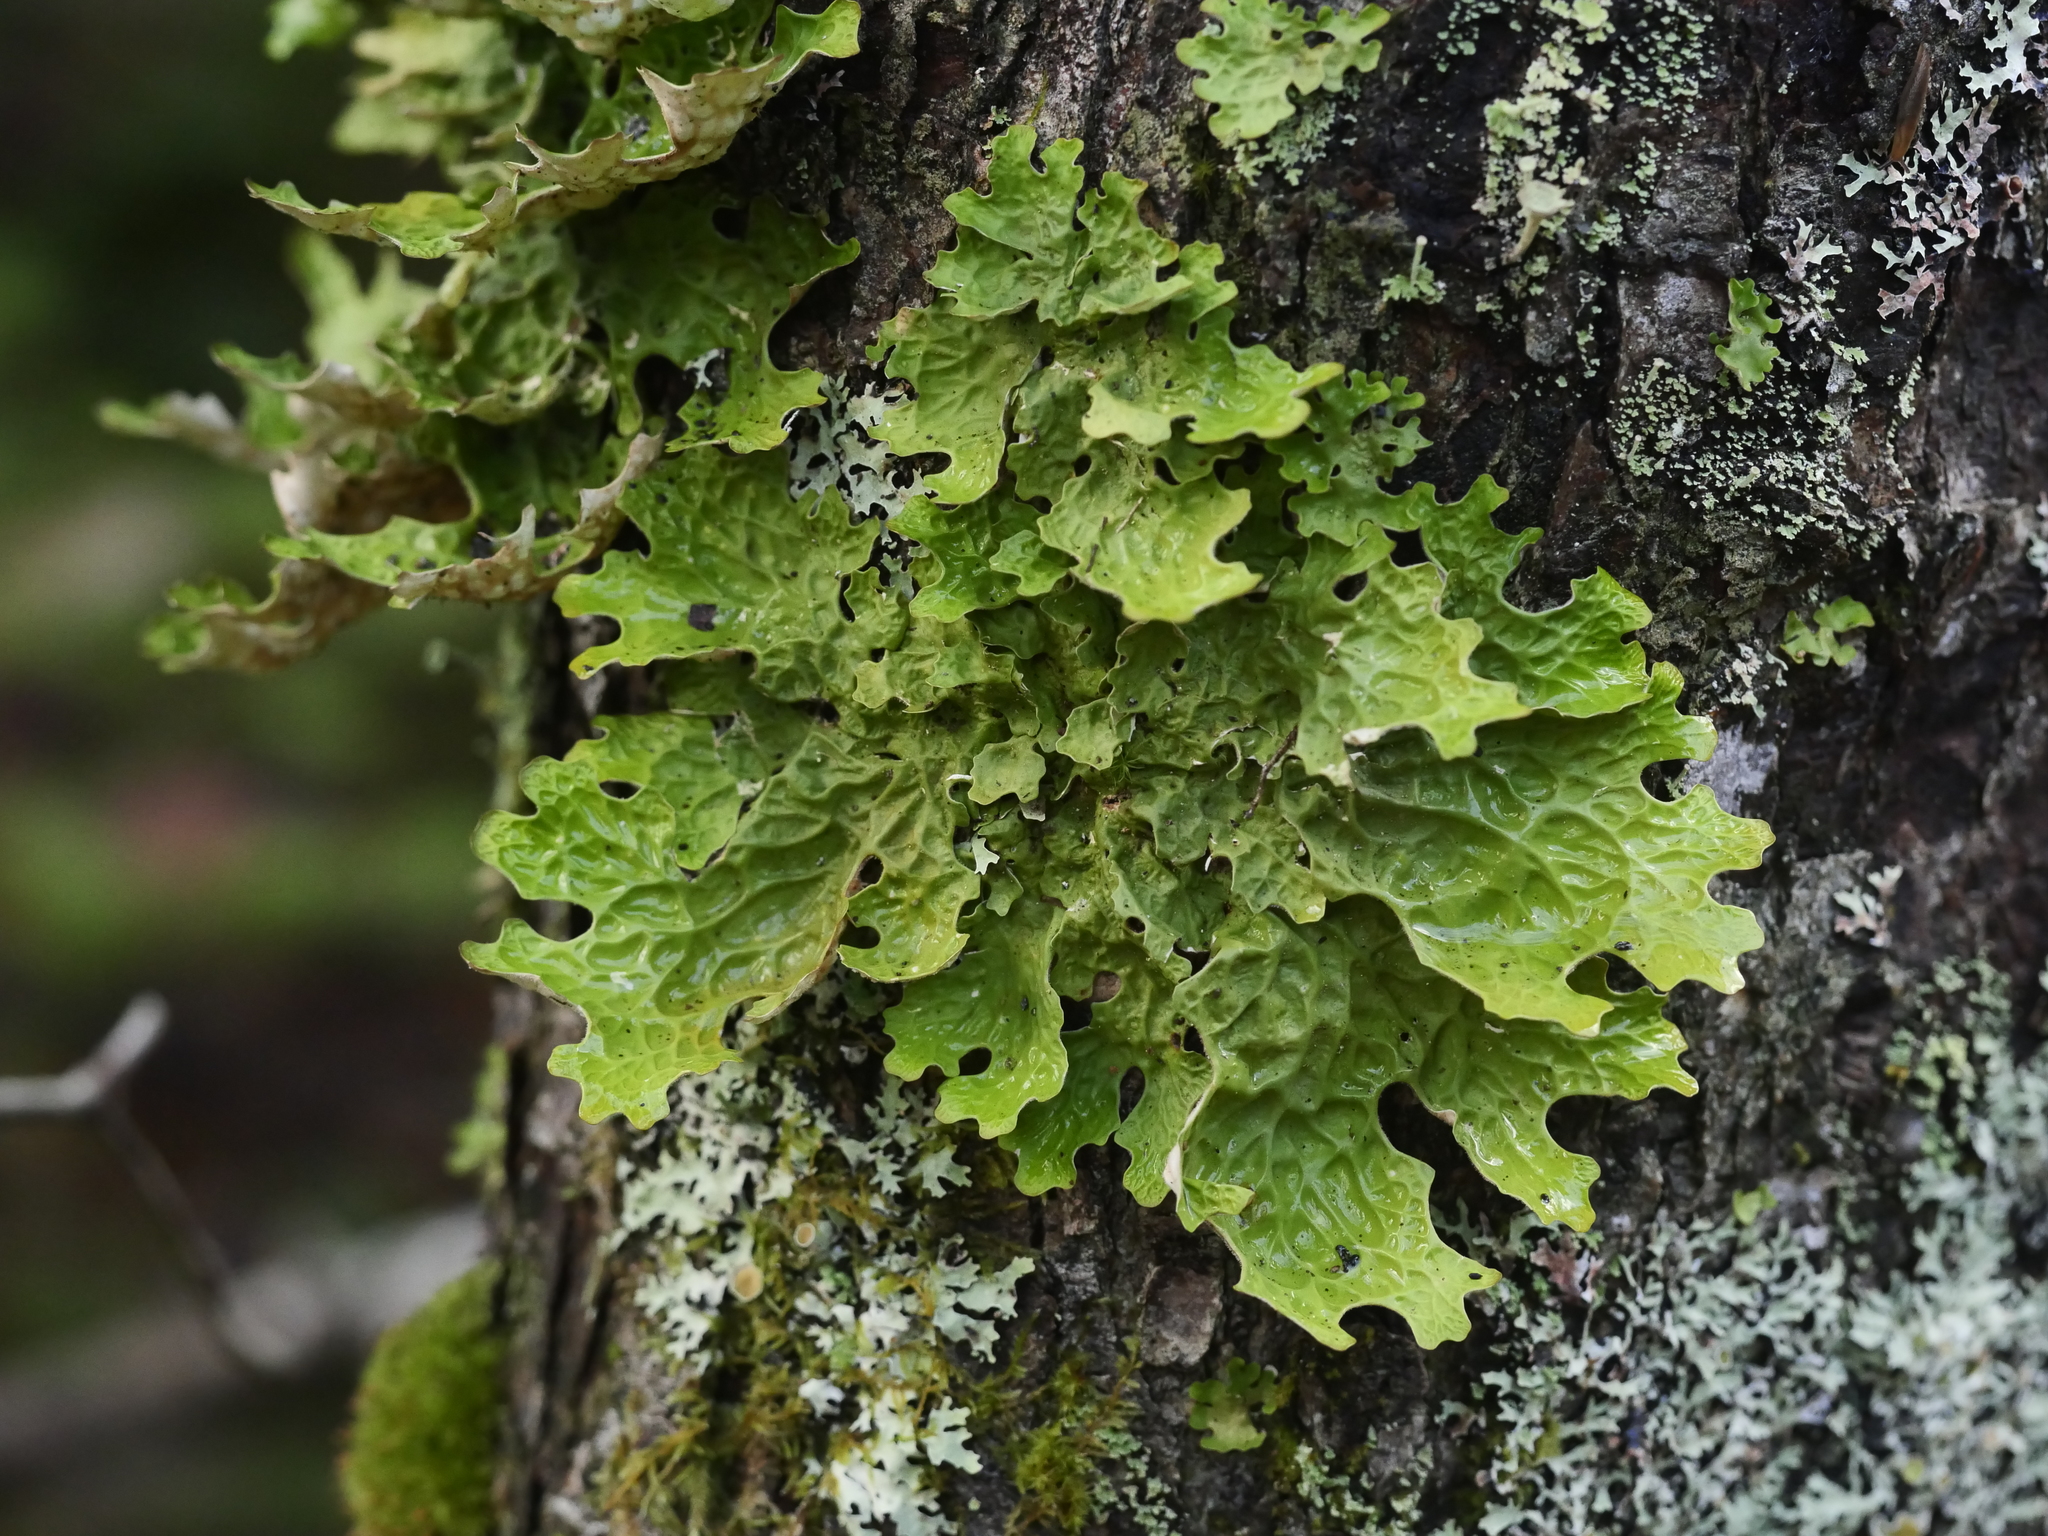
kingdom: Fungi
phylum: Ascomycota
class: Lecanoromycetes
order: Peltigerales
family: Lobariaceae
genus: Lobaria
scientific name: Lobaria pulmonaria
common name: Lungwort
